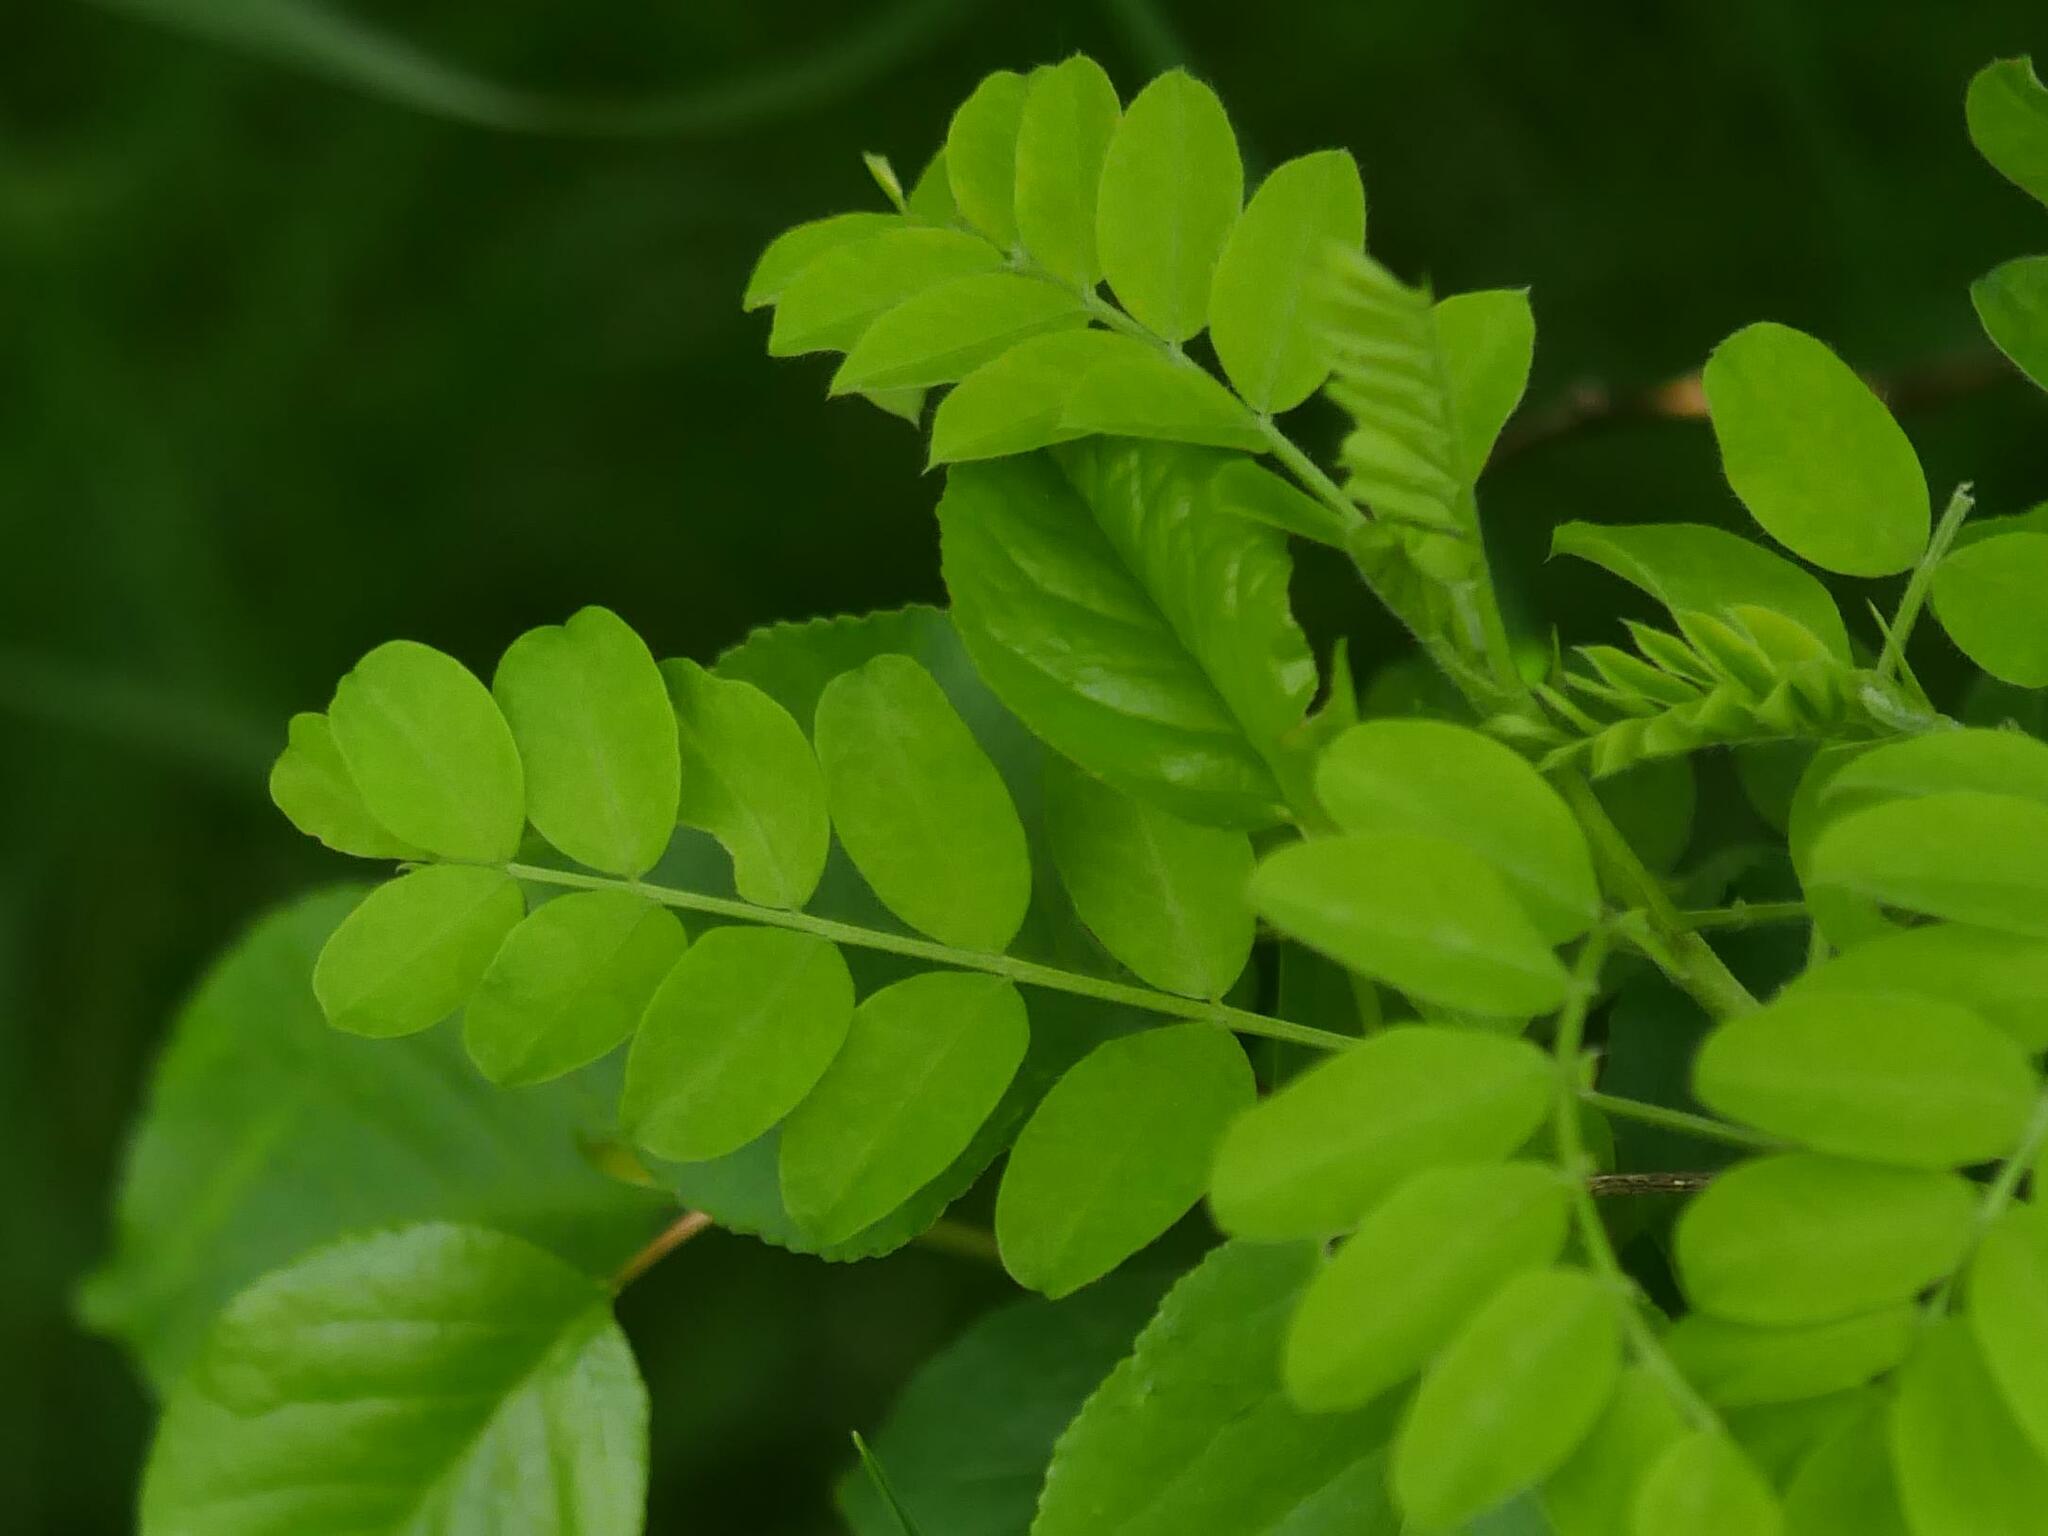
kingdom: Plantae
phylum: Tracheophyta
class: Magnoliopsida
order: Fabales
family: Fabaceae
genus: Robinia
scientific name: Robinia pseudoacacia
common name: Black locust
